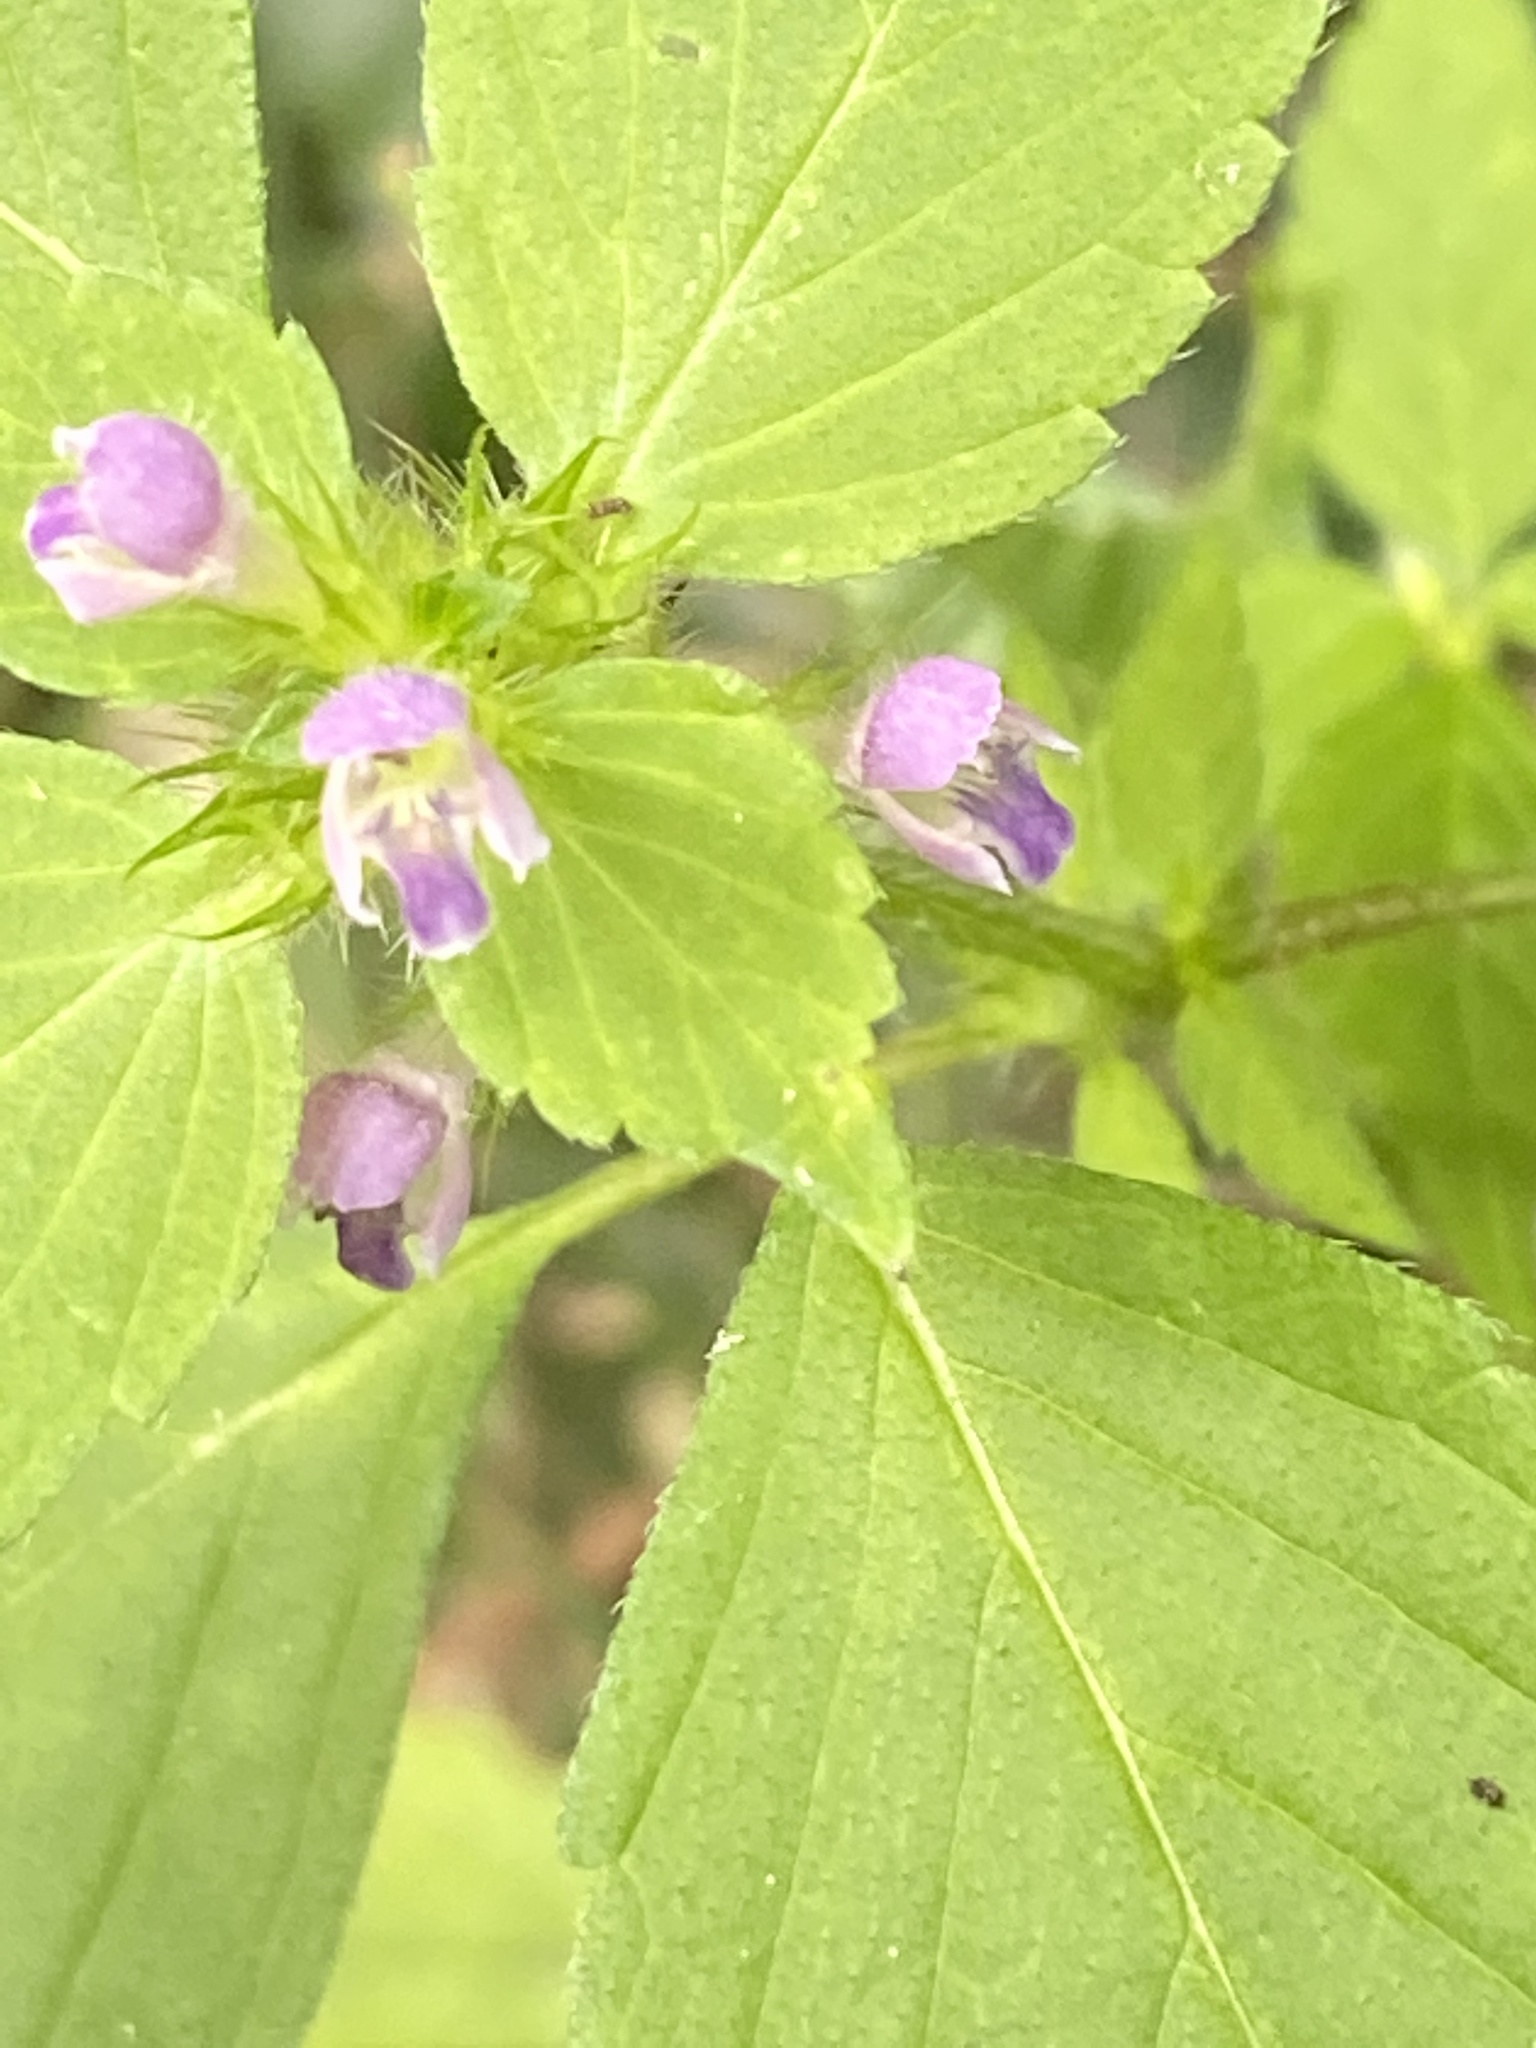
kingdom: Plantae
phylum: Tracheophyta
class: Magnoliopsida
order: Lamiales
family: Lamiaceae
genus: Galeopsis
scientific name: Galeopsis bifida
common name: Bifid hemp-nettle
